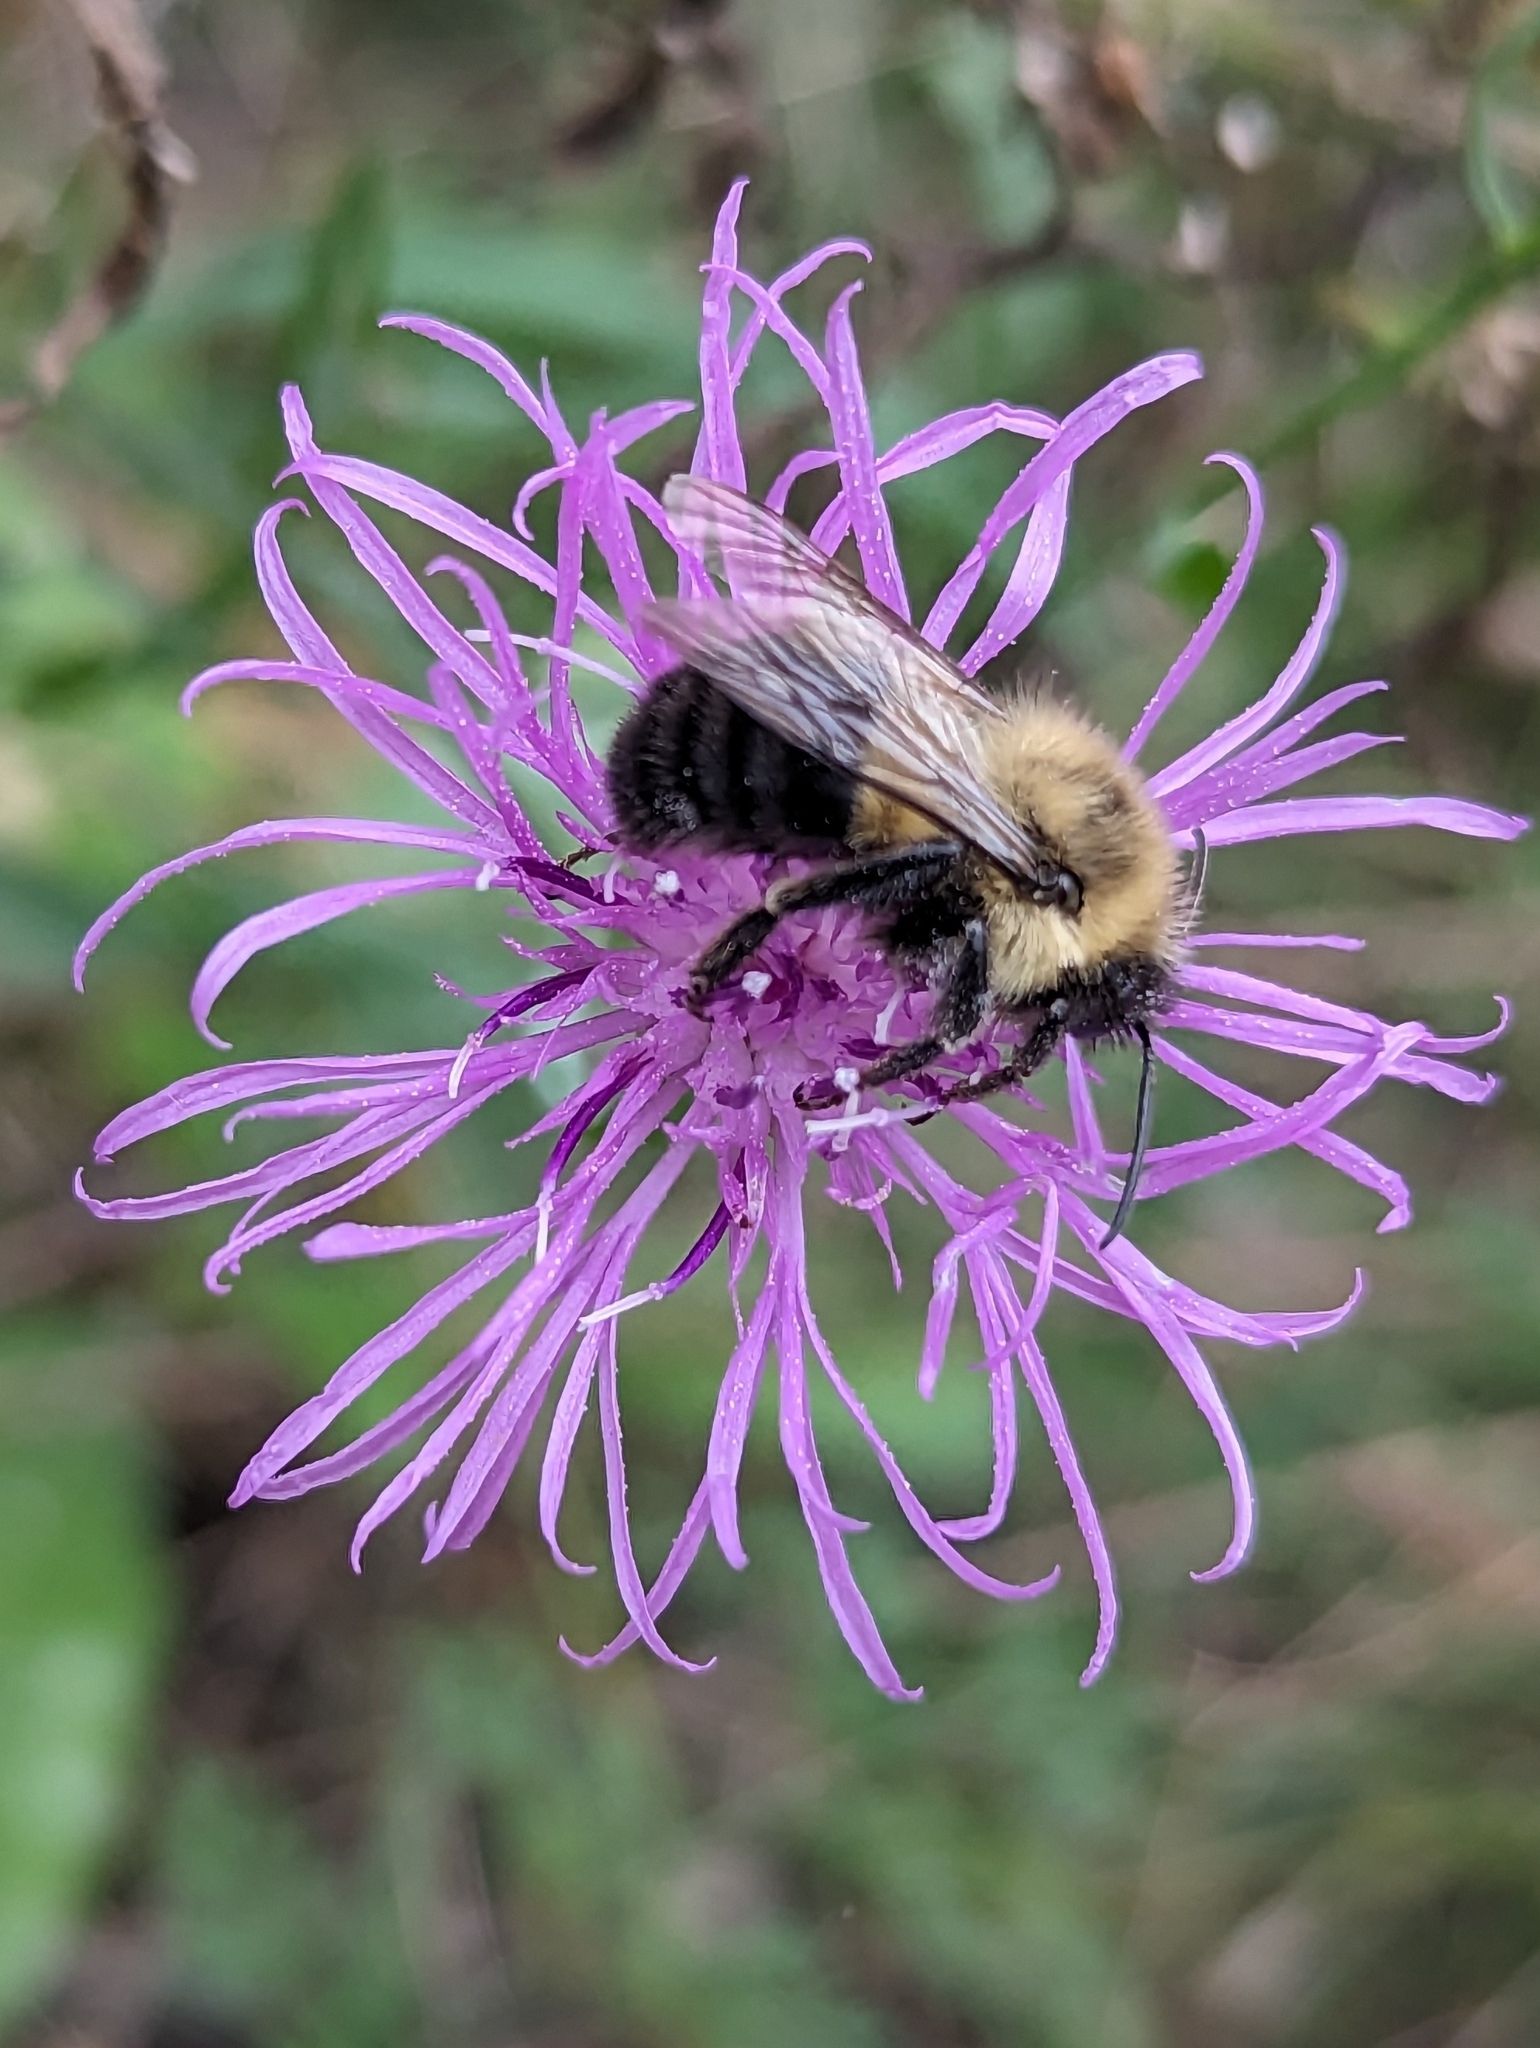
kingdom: Animalia
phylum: Arthropoda
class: Insecta
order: Hymenoptera
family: Apidae
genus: Bombus
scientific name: Bombus impatiens
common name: Common eastern bumble bee
